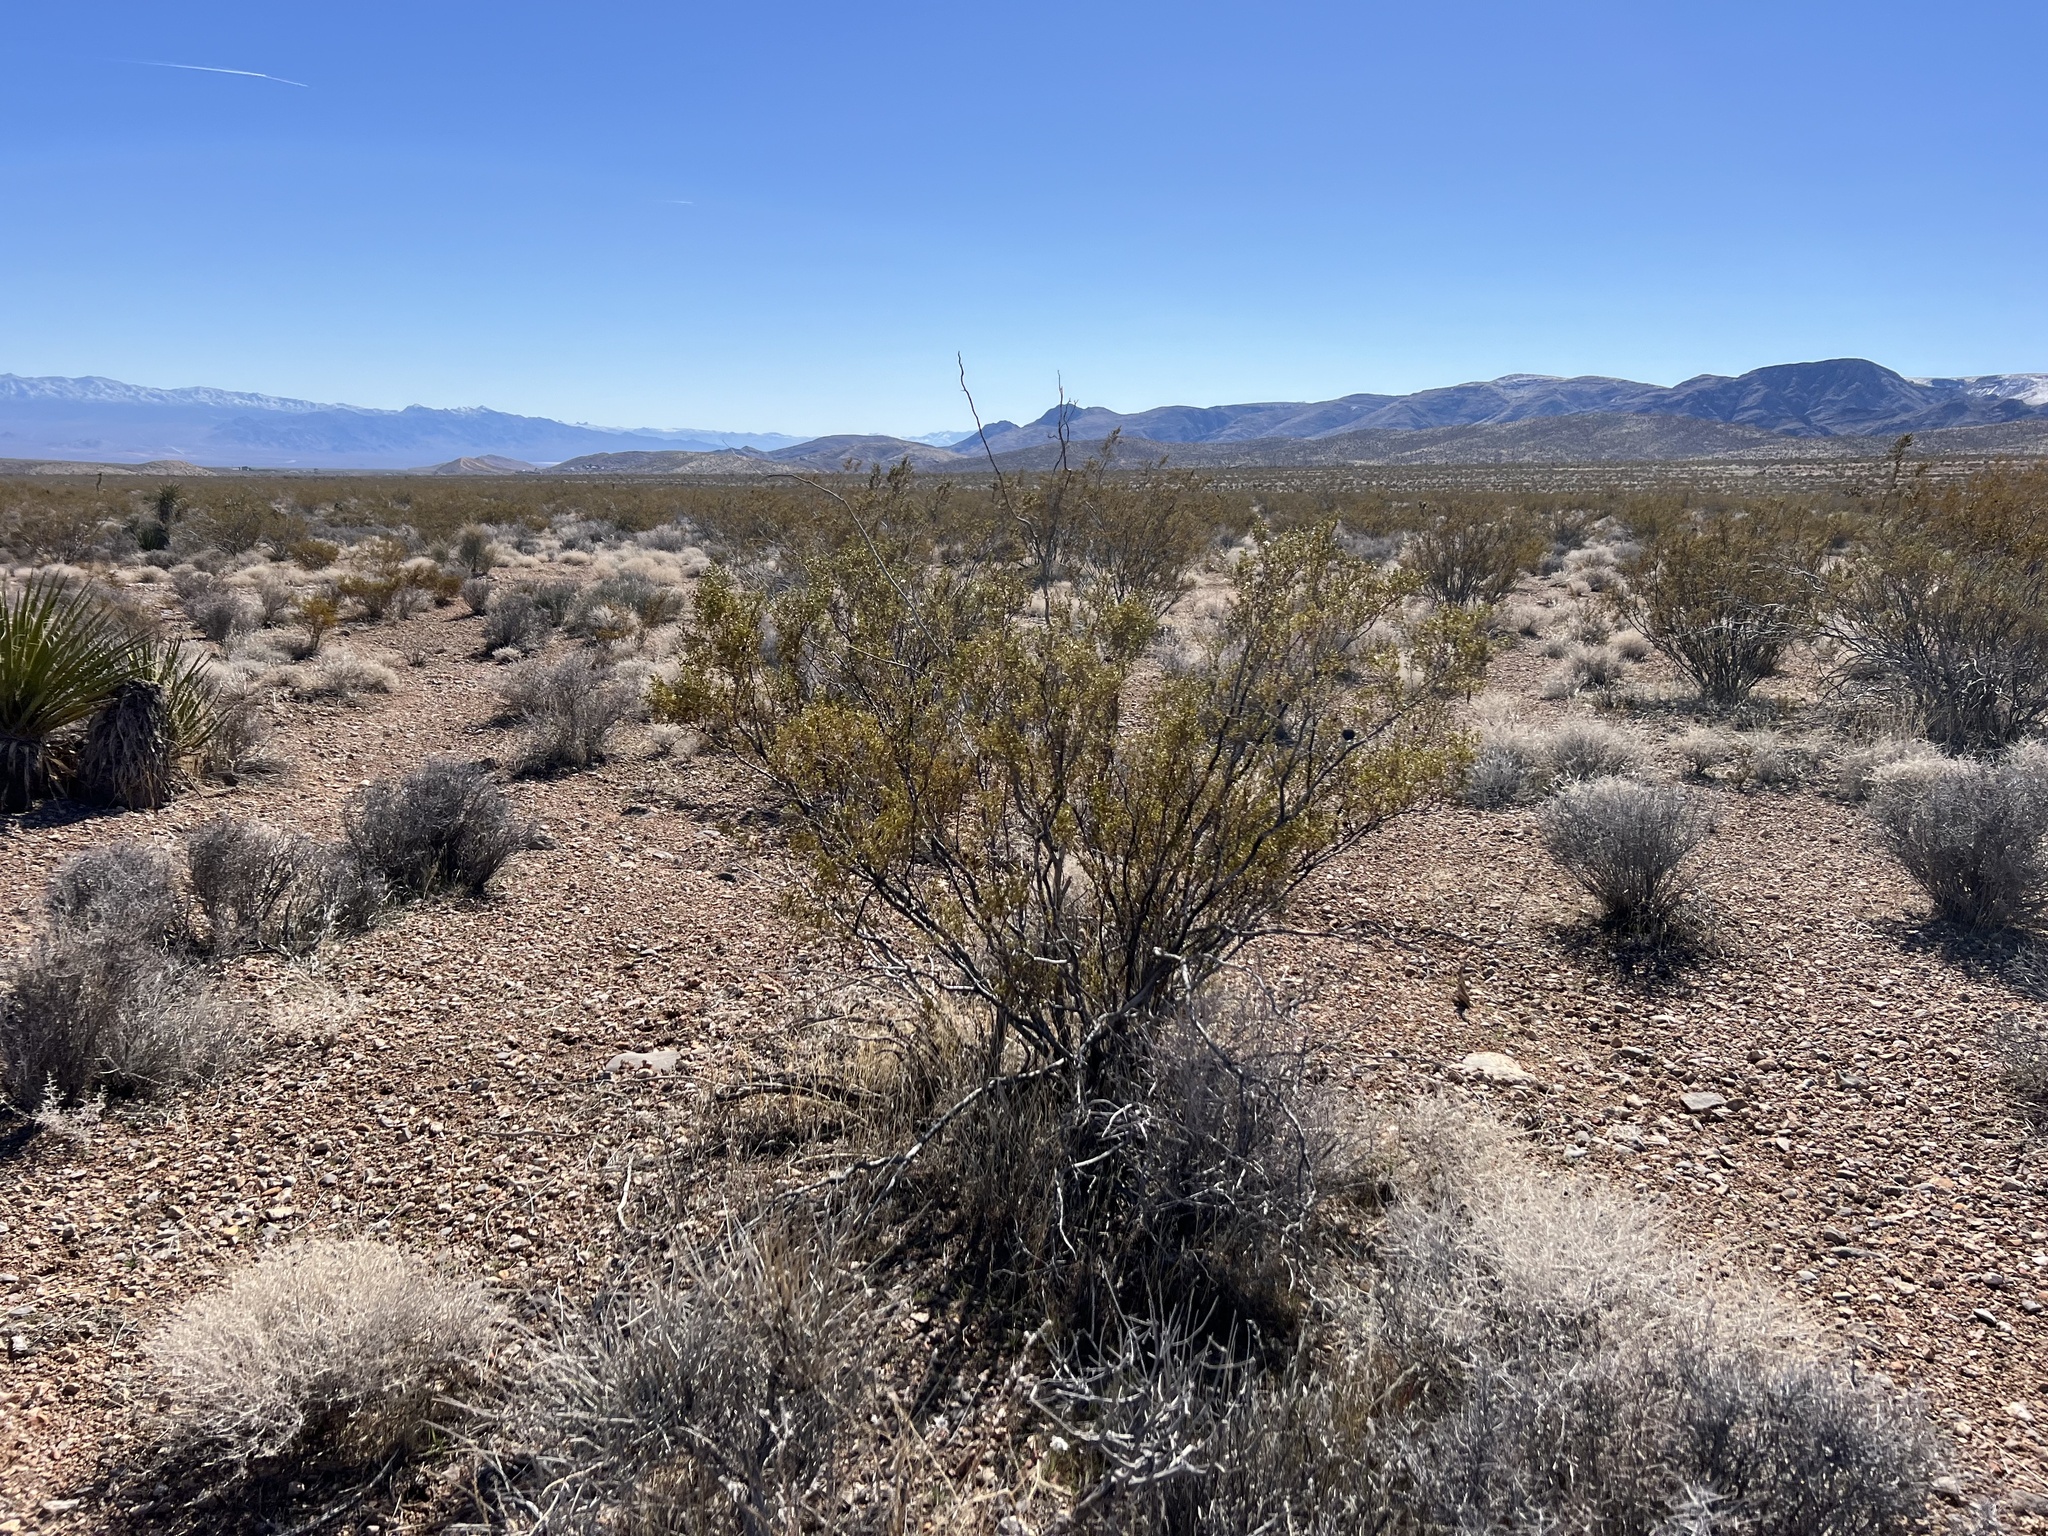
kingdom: Plantae
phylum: Tracheophyta
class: Magnoliopsida
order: Zygophyllales
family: Zygophyllaceae
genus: Larrea
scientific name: Larrea tridentata
